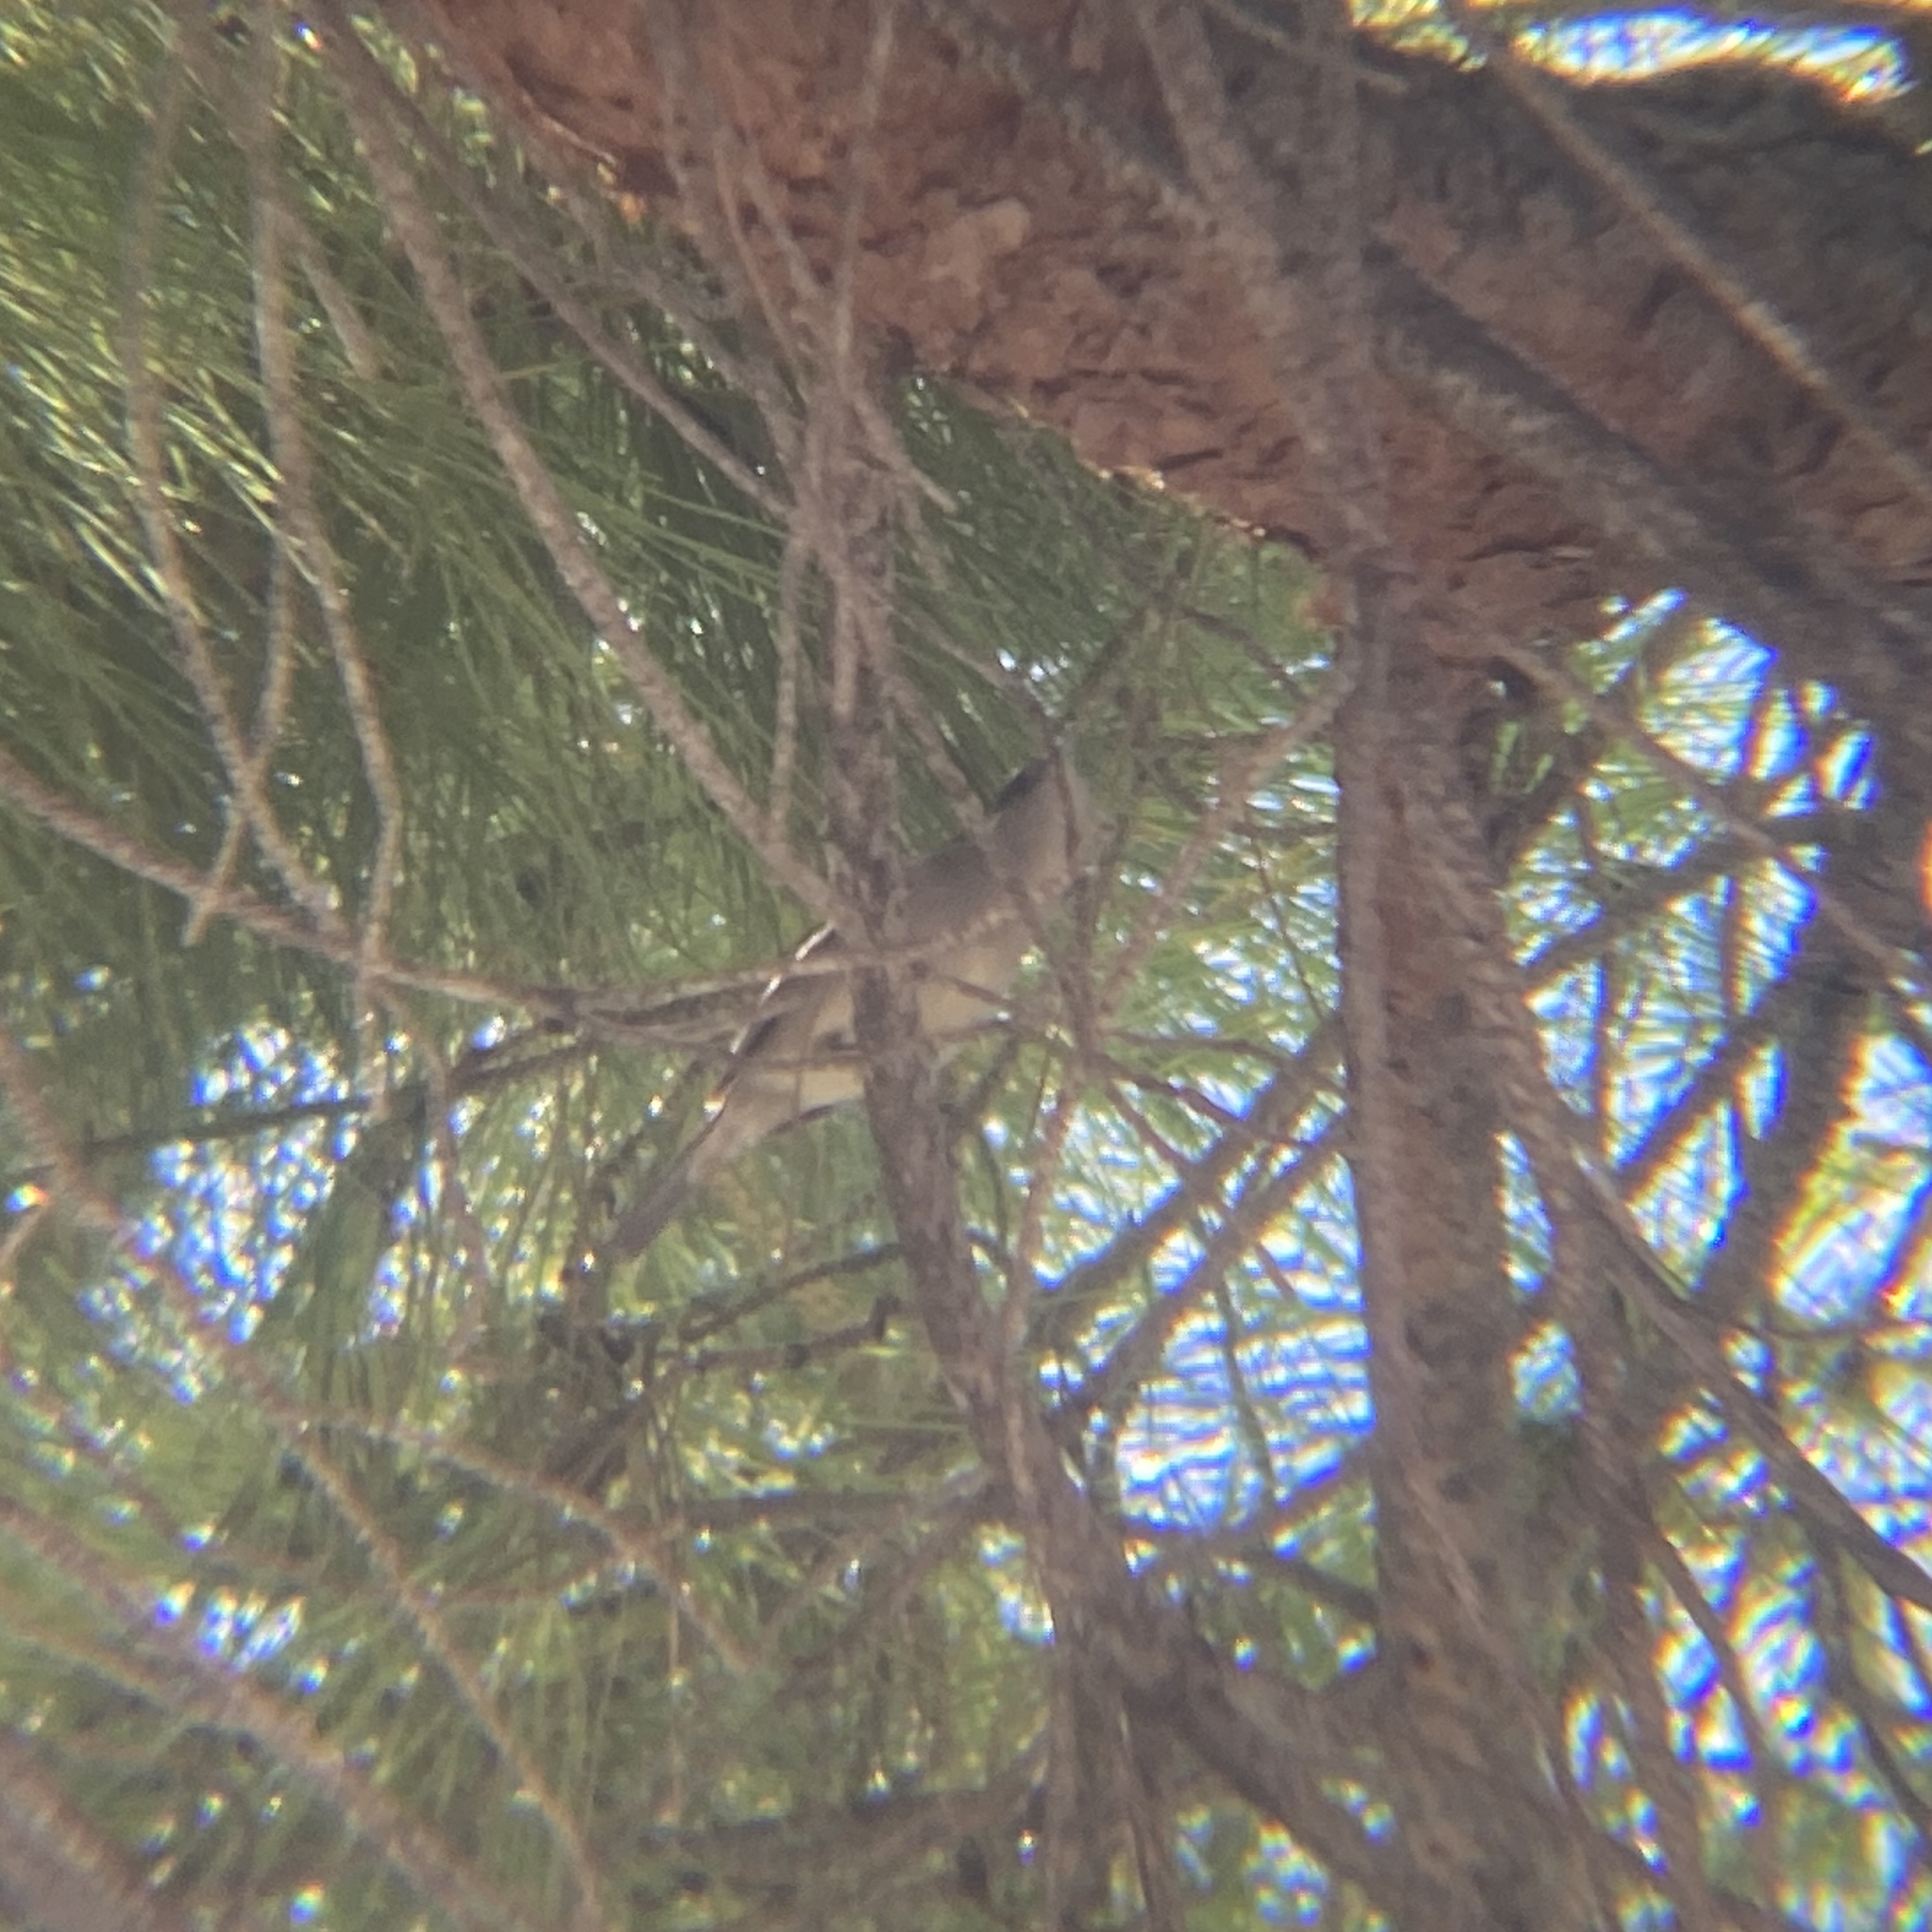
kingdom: Animalia
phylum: Chordata
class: Aves
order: Passeriformes
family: Sylviidae
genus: Sylvia
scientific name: Sylvia atricapilla
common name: Eurasian blackcap
